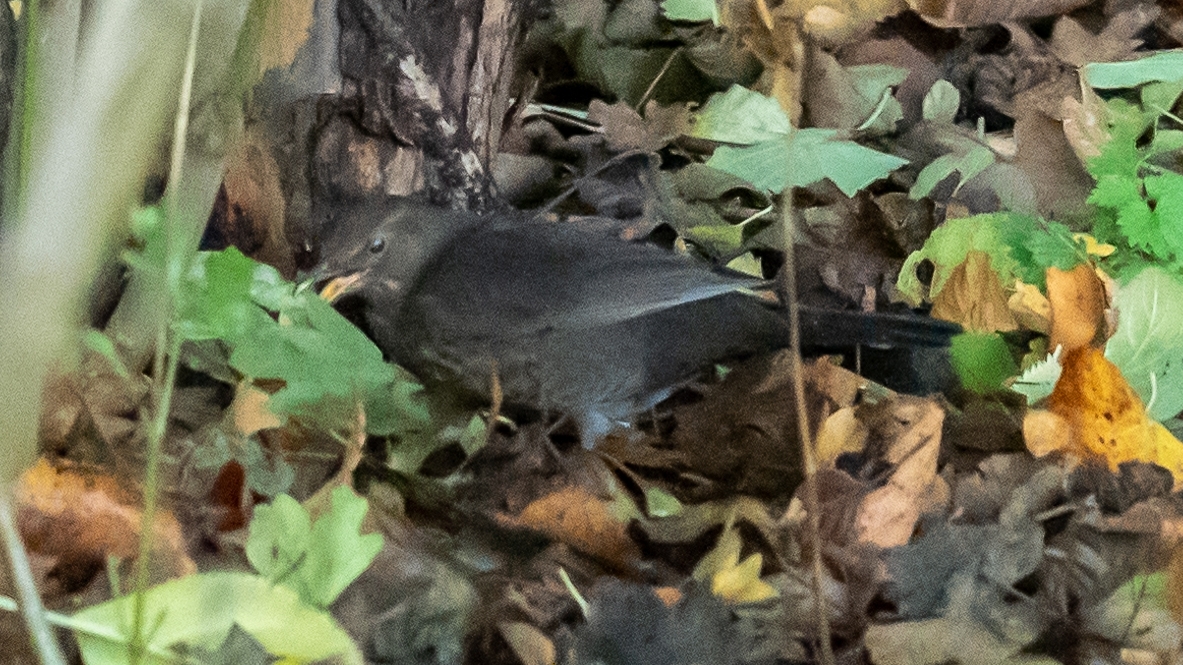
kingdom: Animalia
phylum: Chordata
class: Aves
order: Passeriformes
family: Turdidae
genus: Turdus
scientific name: Turdus merula
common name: Common blackbird
